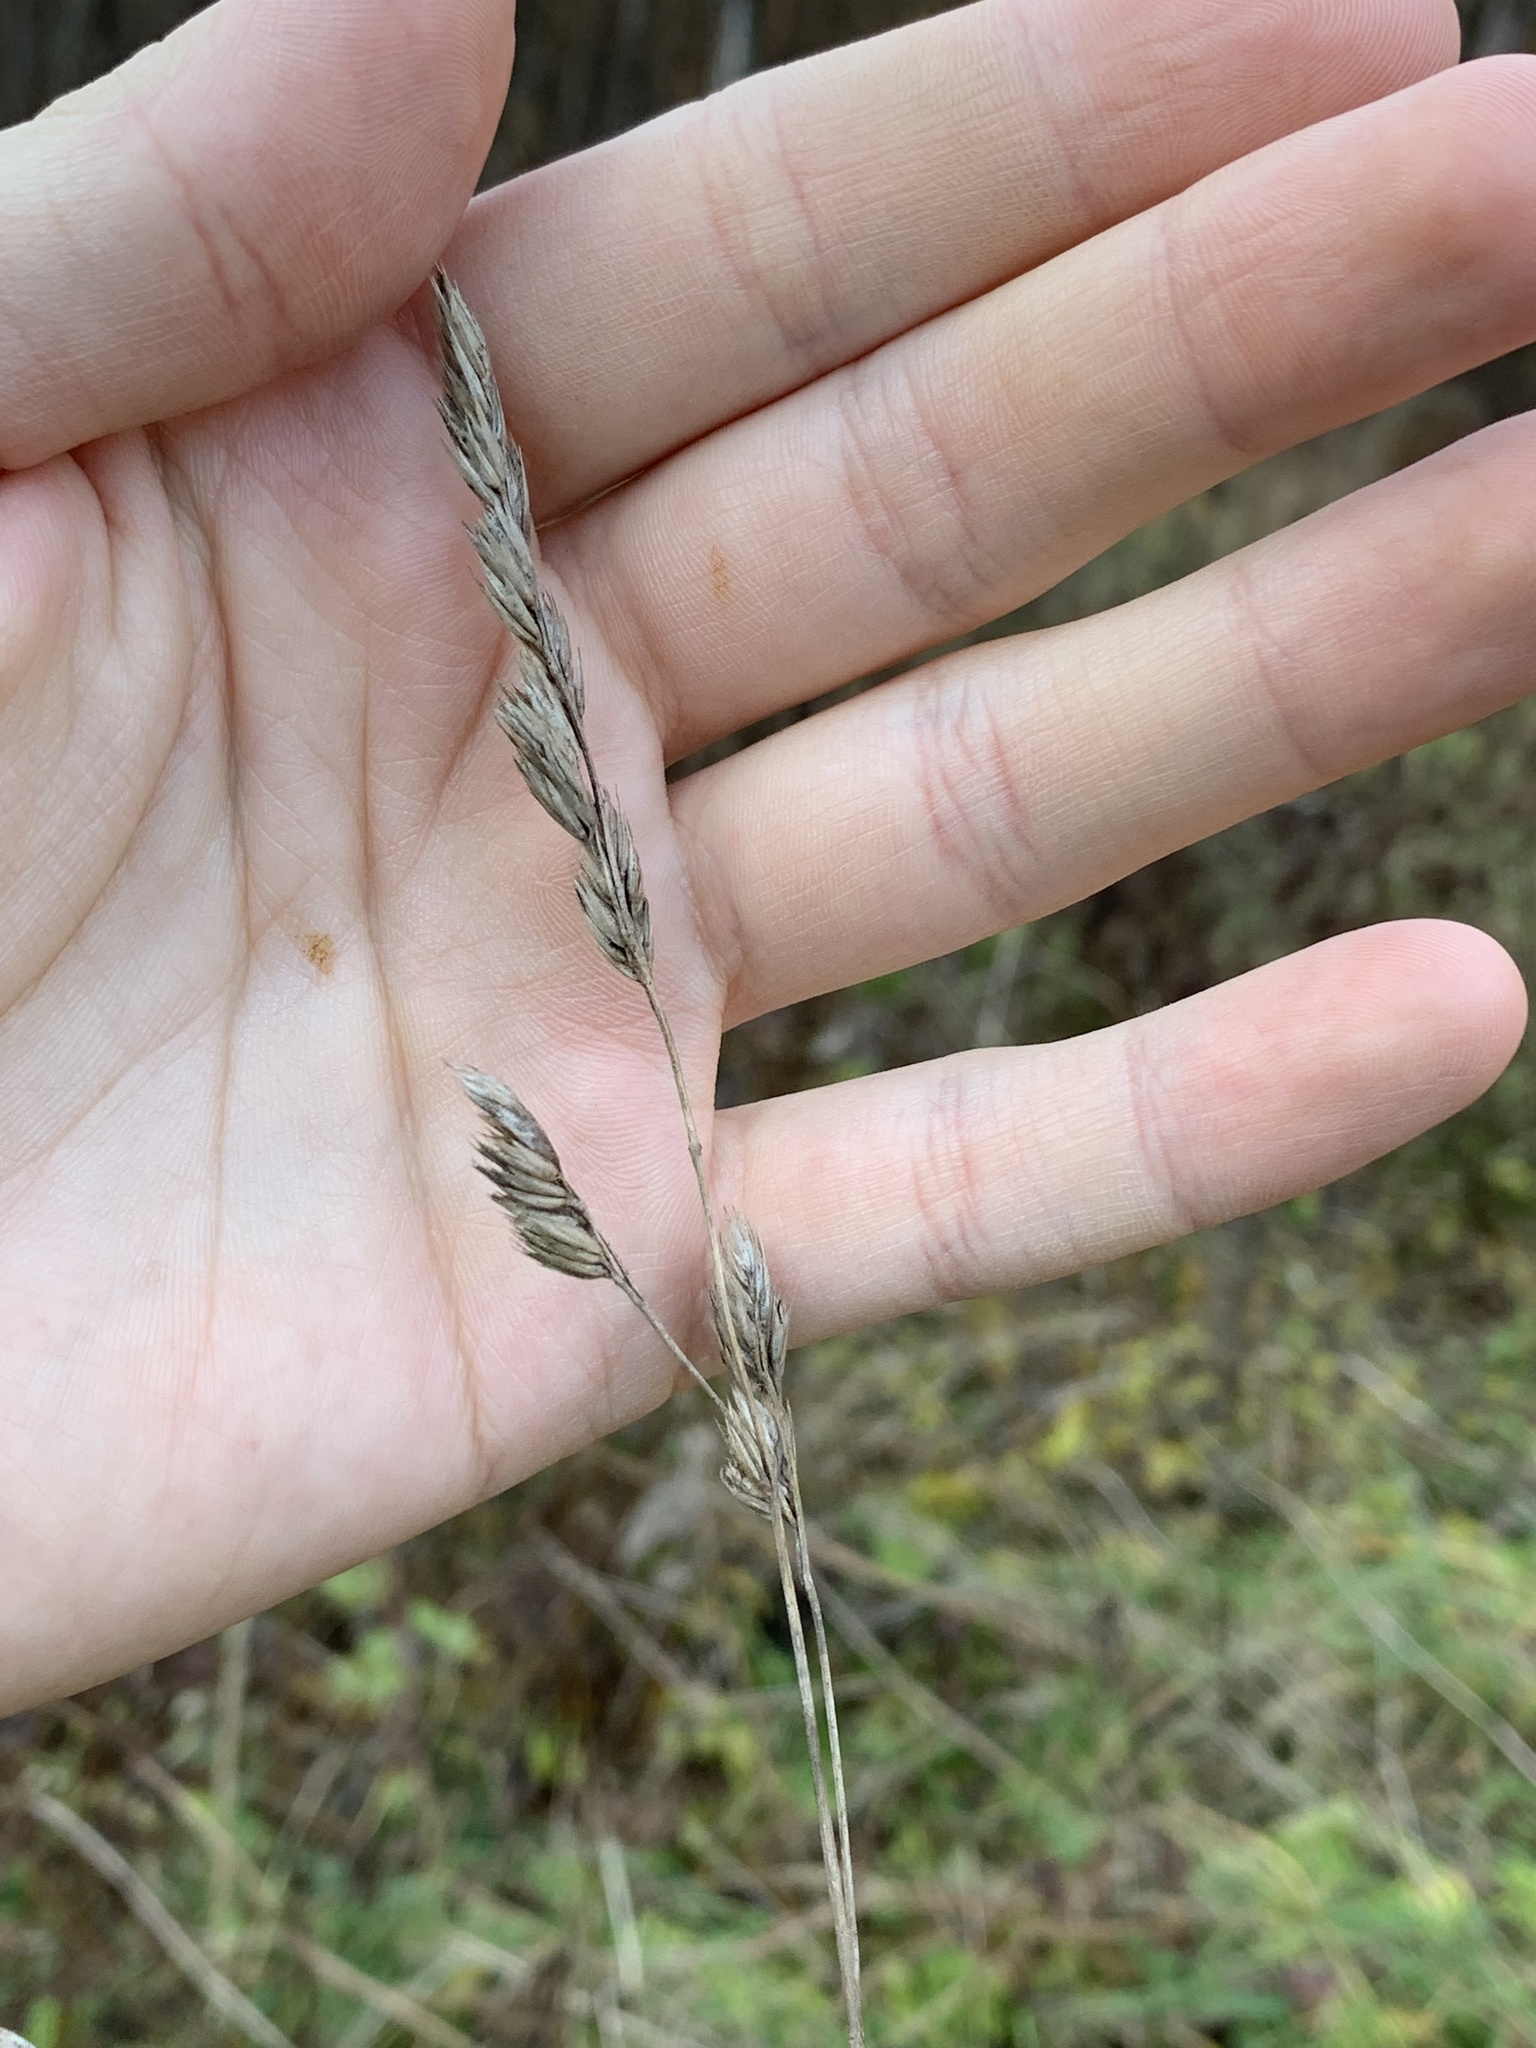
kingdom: Plantae
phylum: Tracheophyta
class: Liliopsida
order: Poales
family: Poaceae
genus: Dactylis
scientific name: Dactylis glomerata
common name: Orchardgrass
